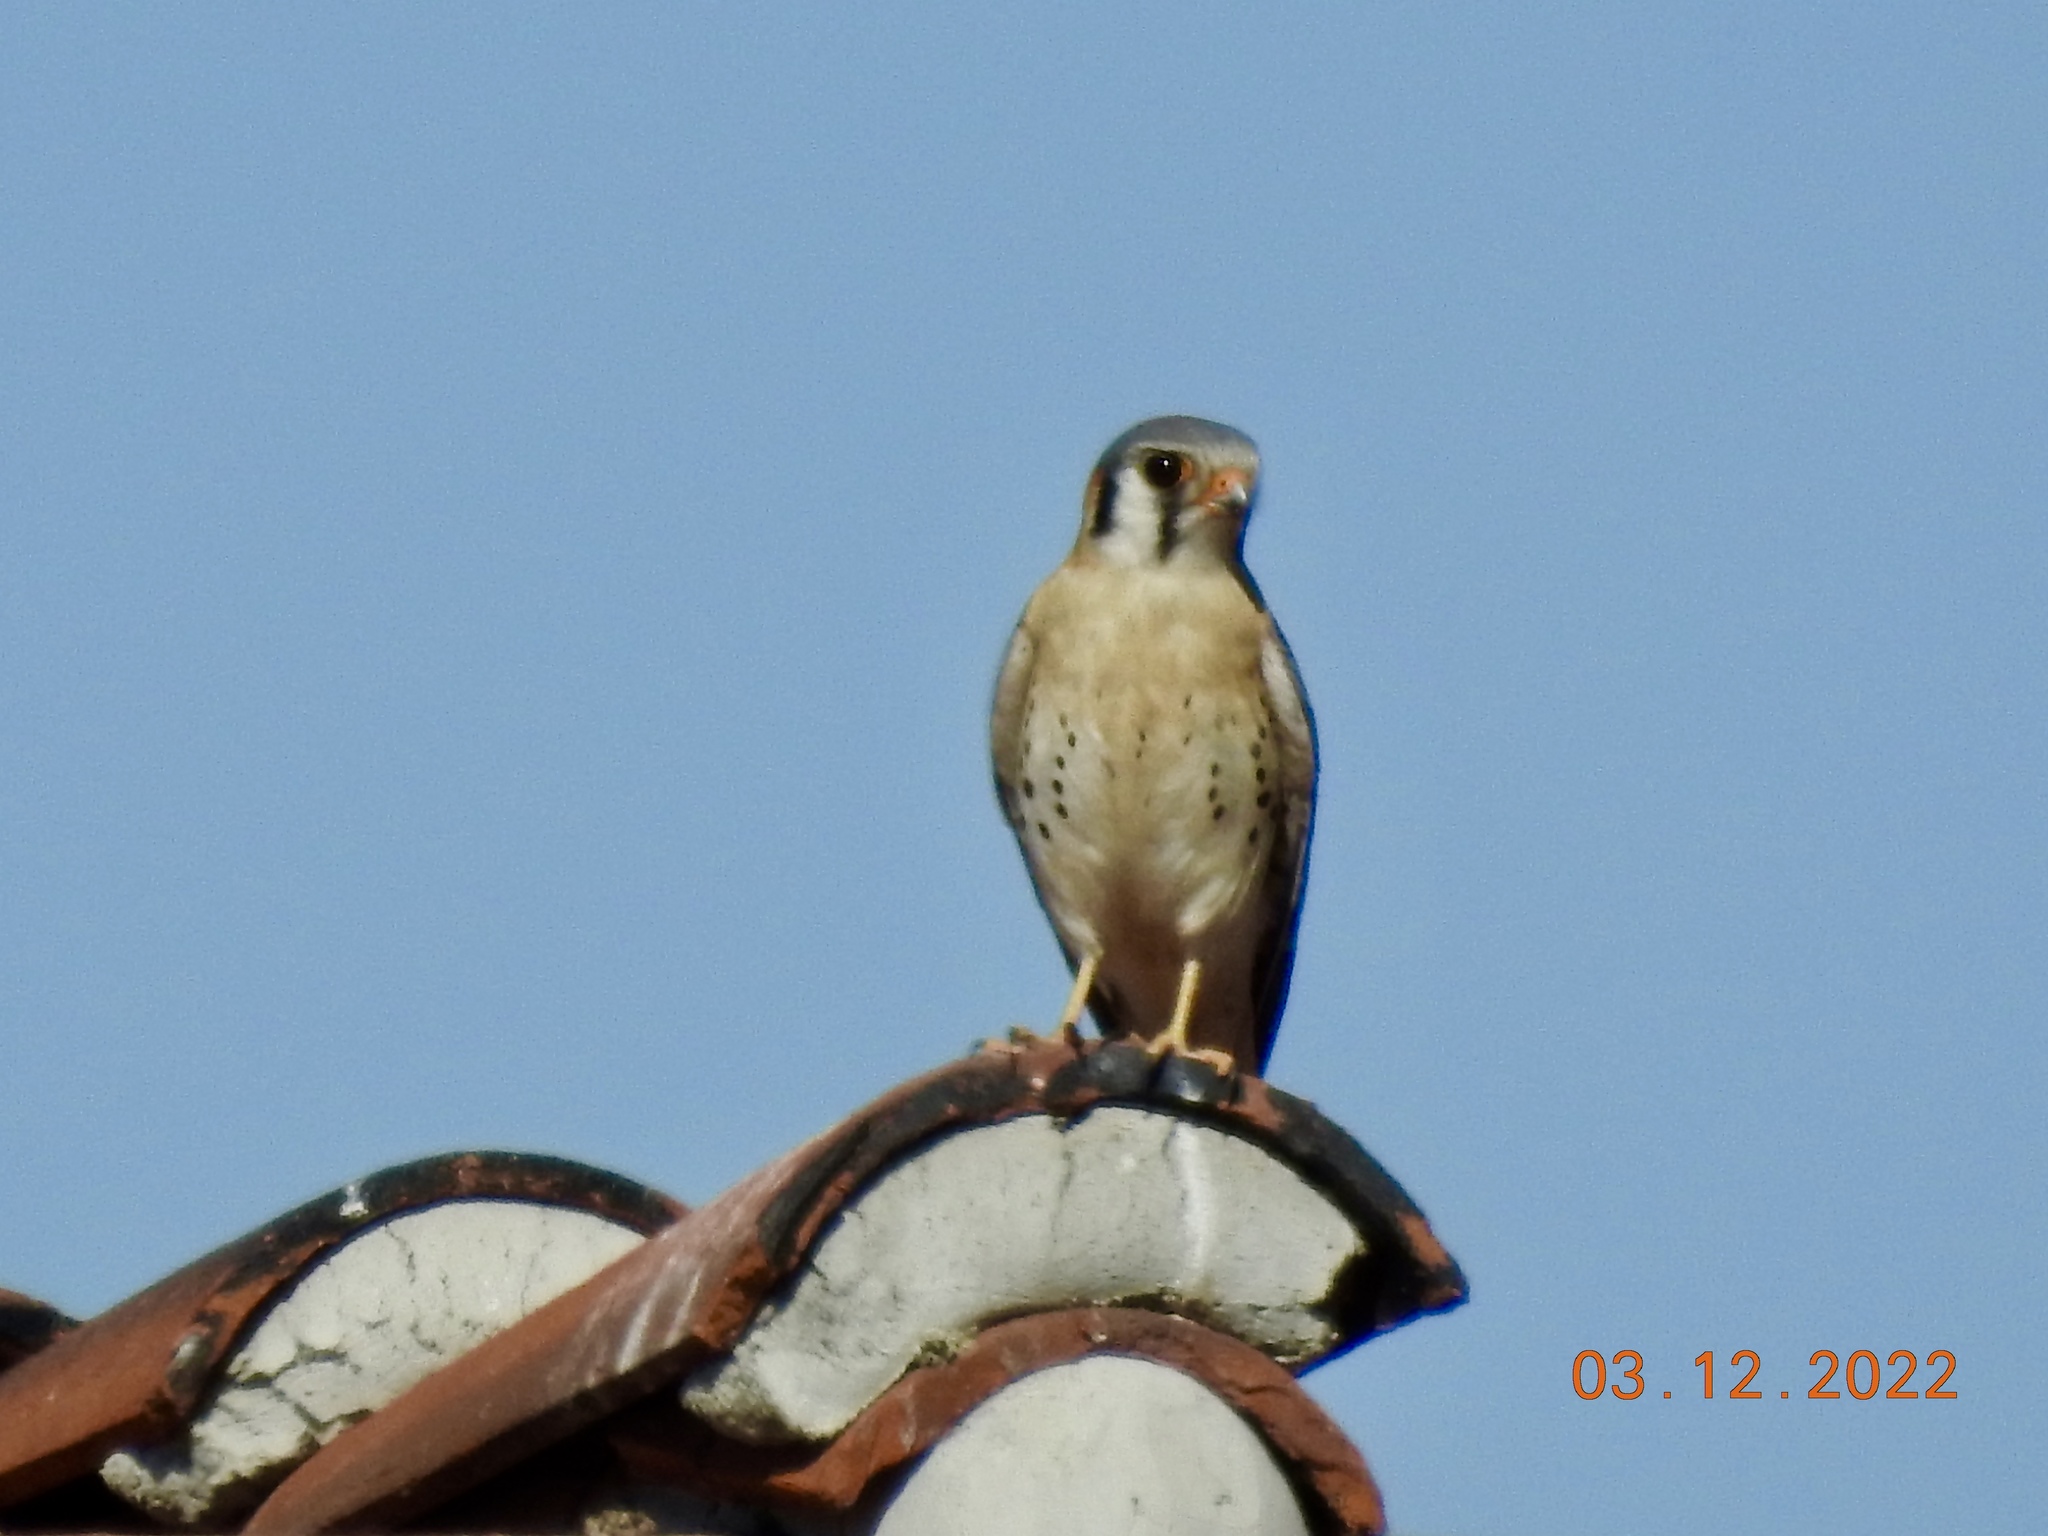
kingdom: Animalia
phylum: Chordata
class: Aves
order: Falconiformes
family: Falconidae
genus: Falco
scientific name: Falco sparverius
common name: American kestrel
